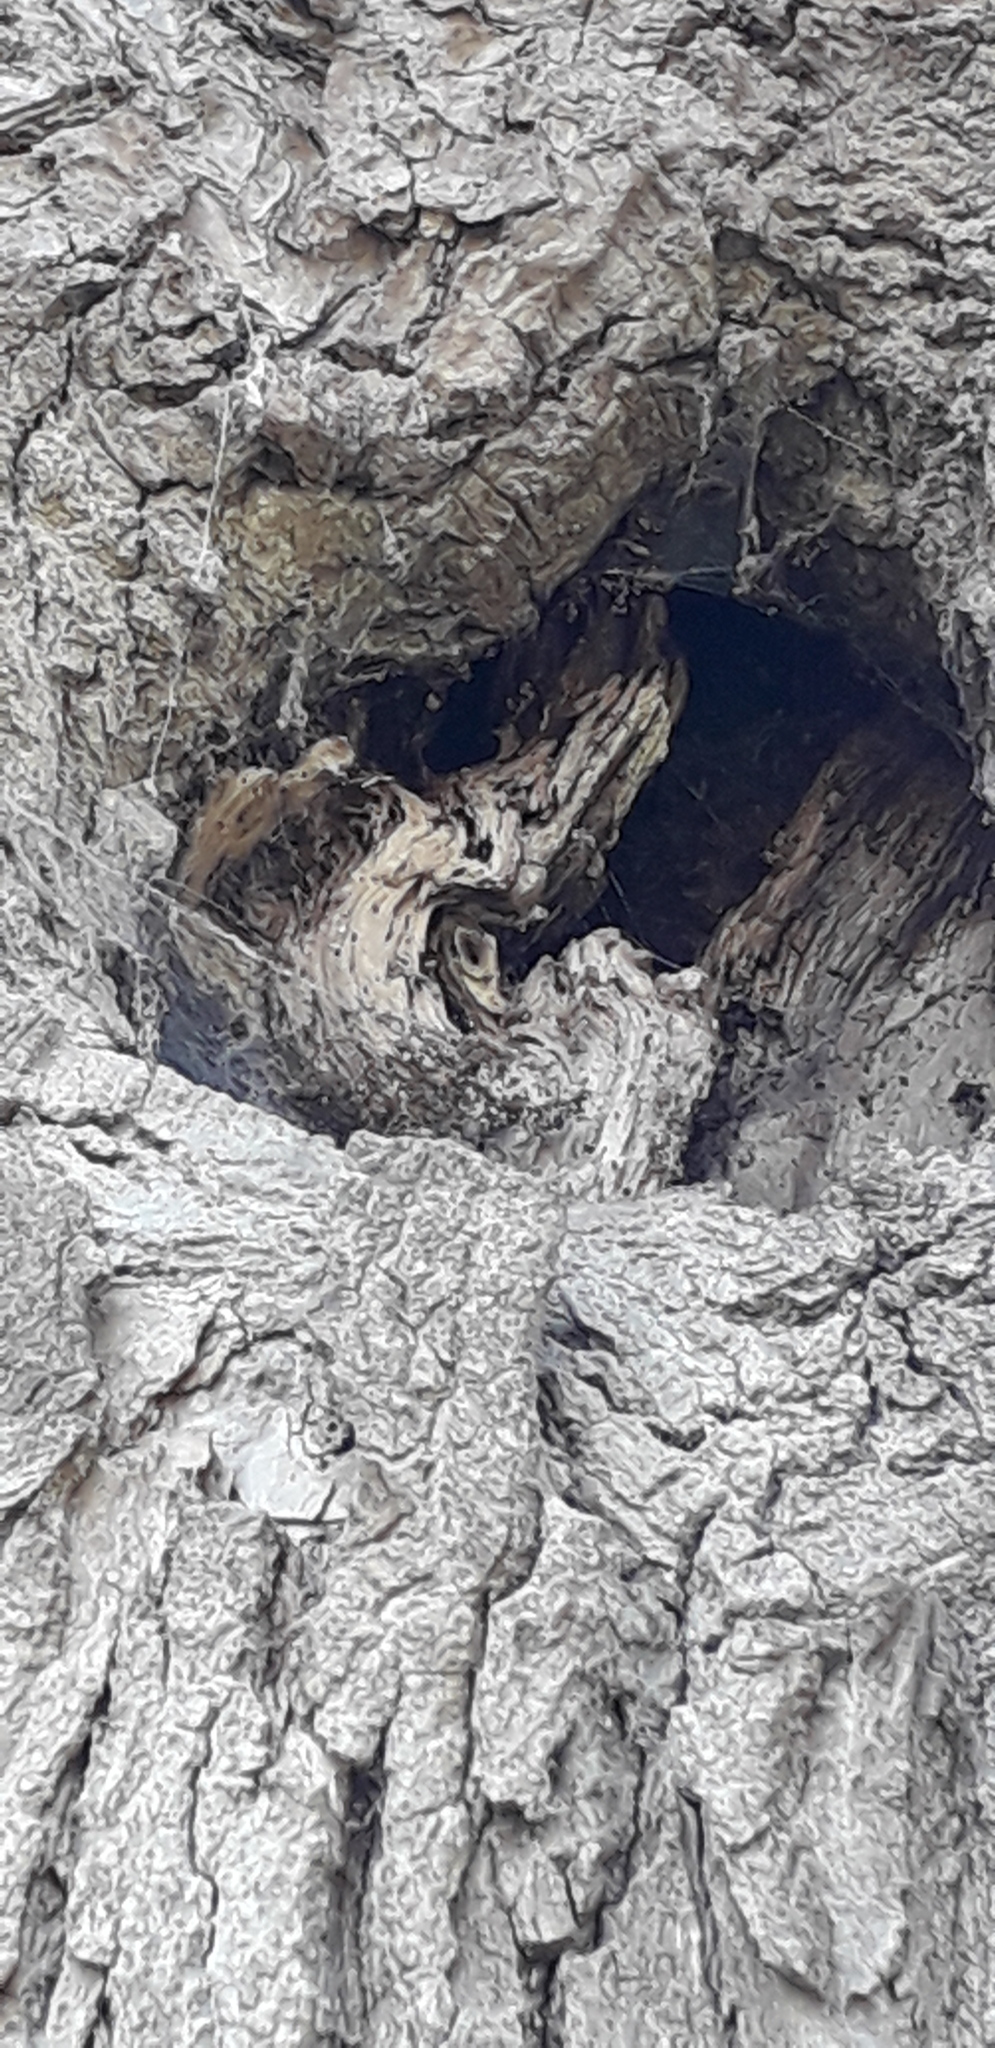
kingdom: Animalia
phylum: Arthropoda
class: Insecta
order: Hymenoptera
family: Vespidae
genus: Vespa
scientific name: Vespa crabro
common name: Hornet
